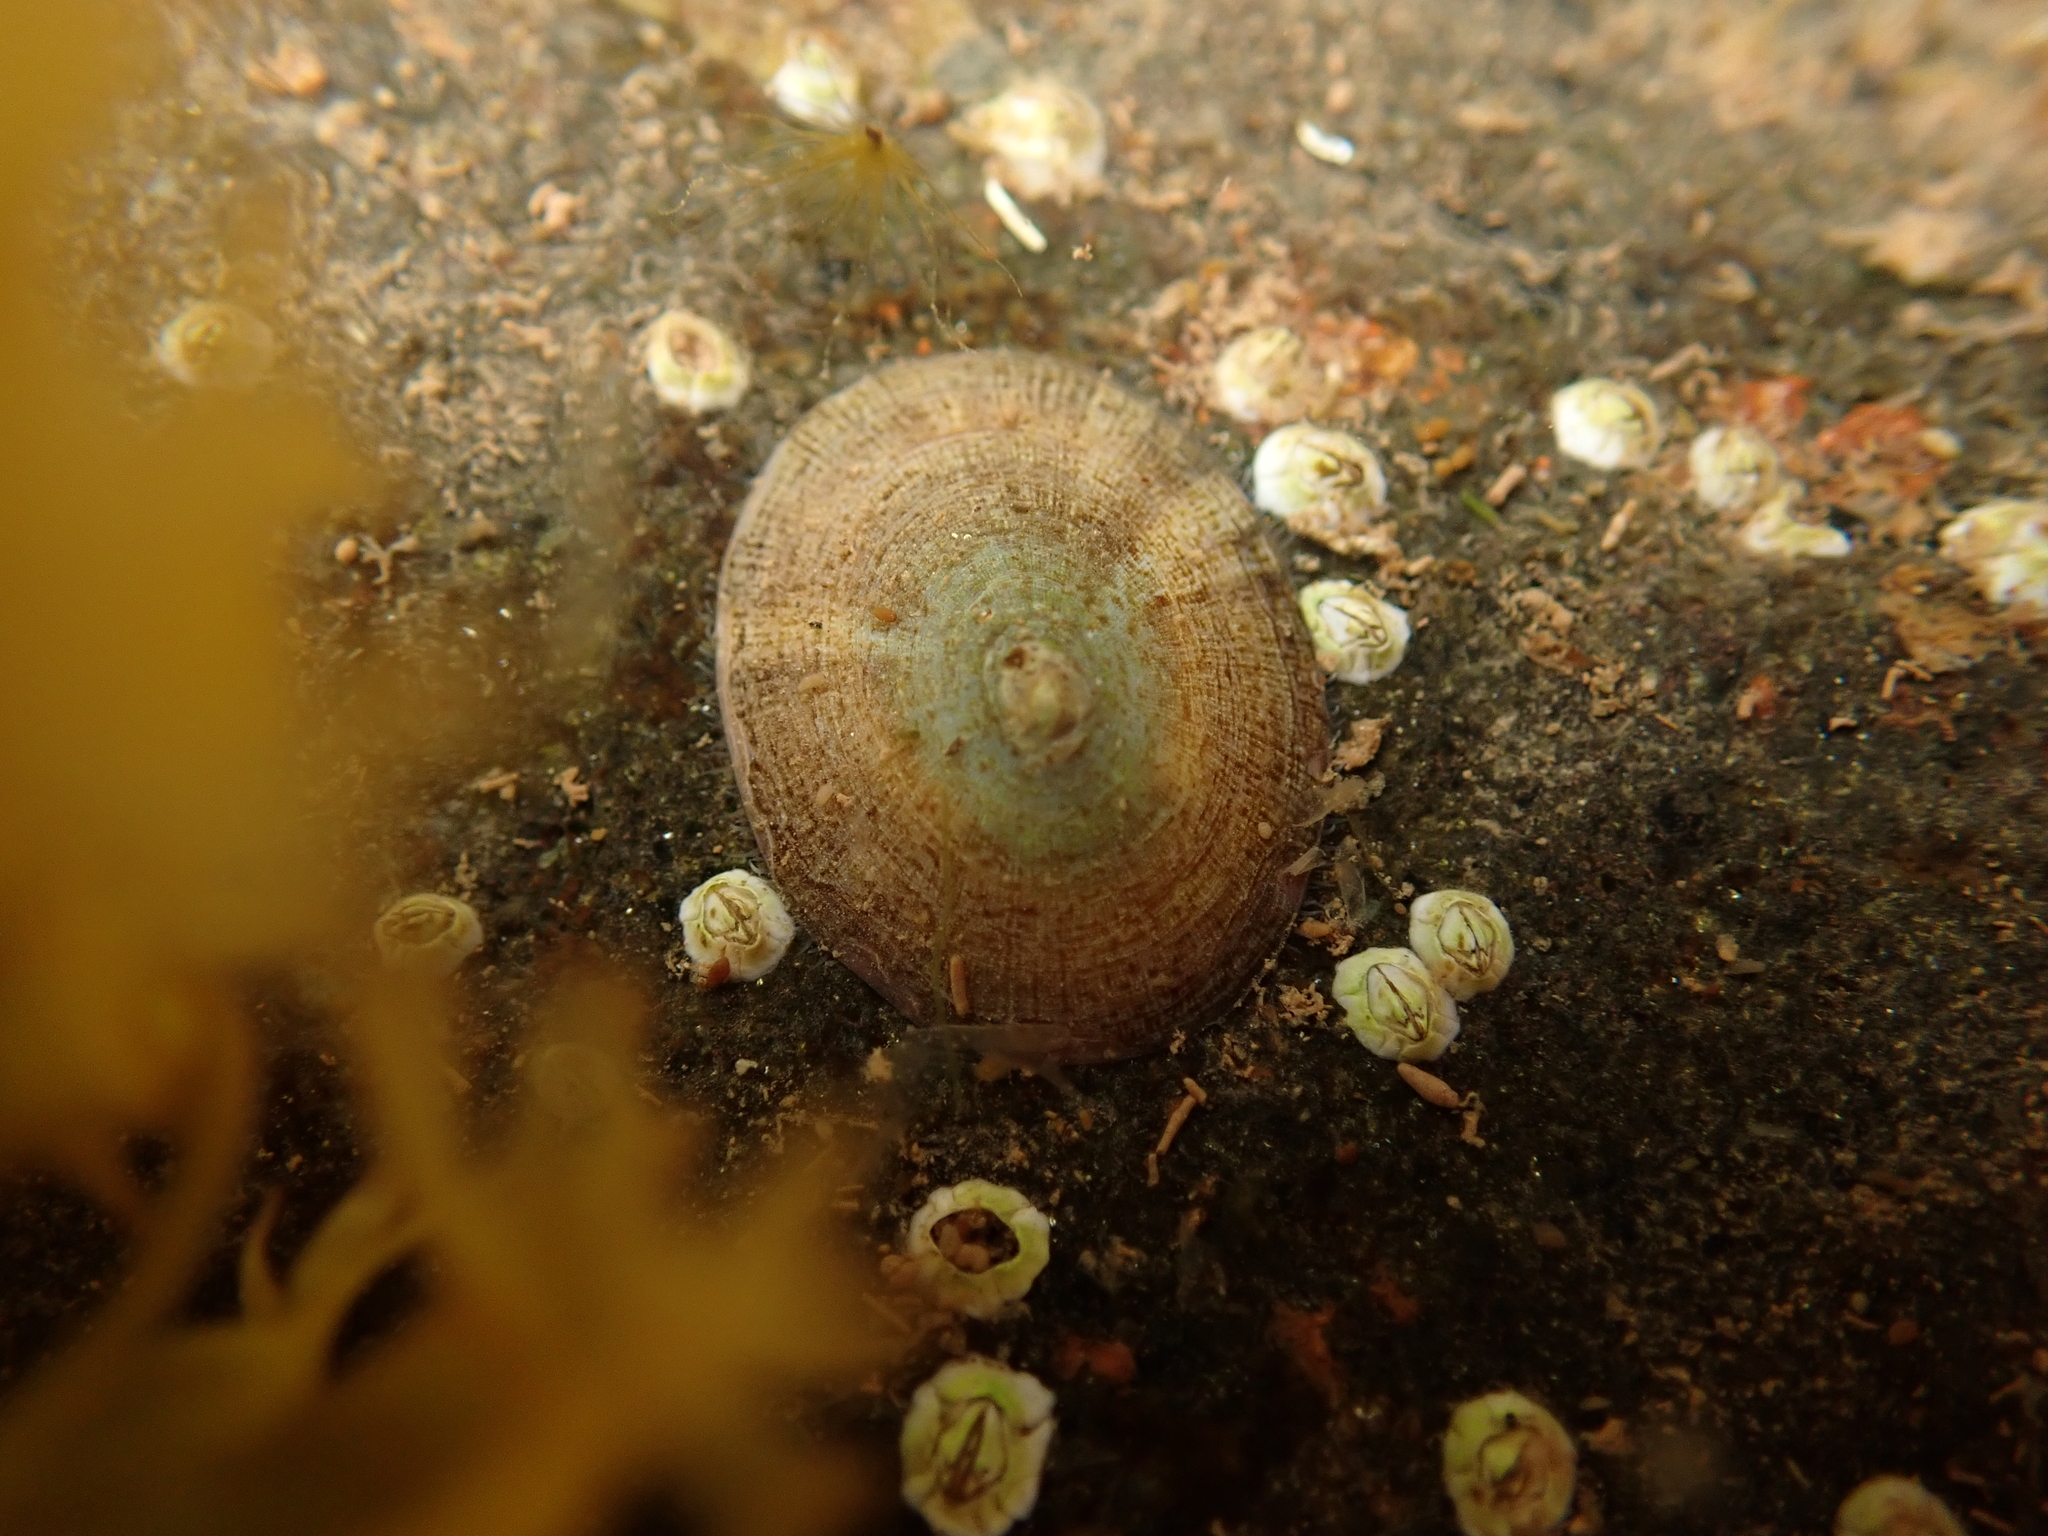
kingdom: Animalia
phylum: Mollusca
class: Gastropoda
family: Lottiidae
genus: Testudinalia
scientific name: Testudinalia testudinalis
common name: Common tortoiseshell limpet
